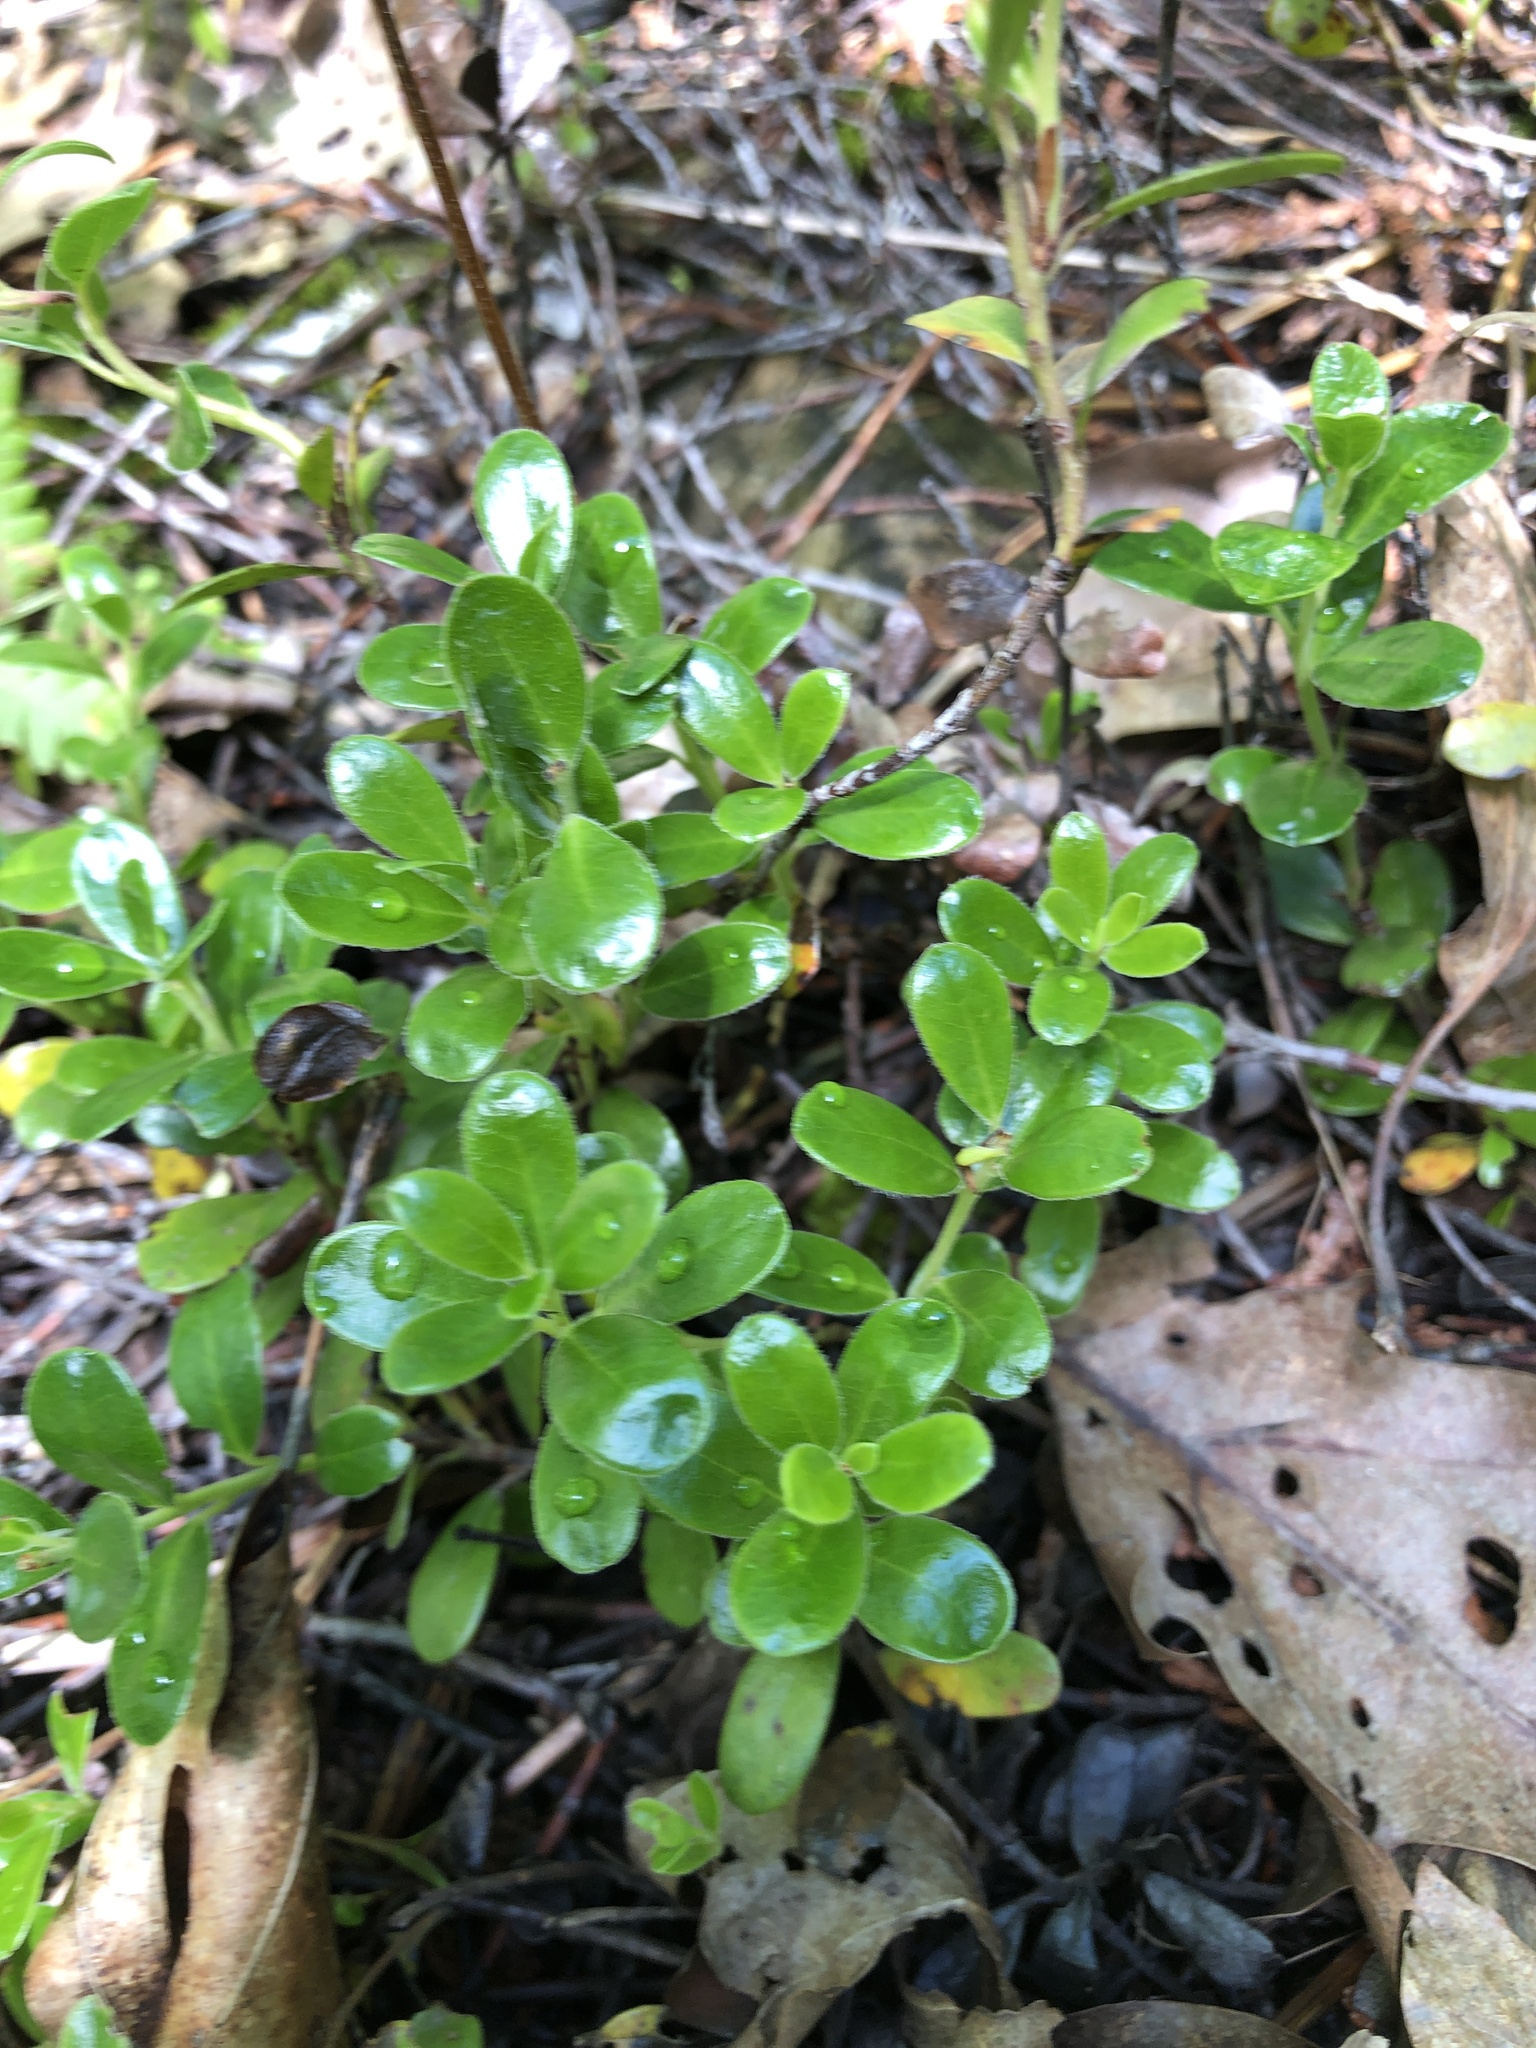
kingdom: Plantae
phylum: Tracheophyta
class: Magnoliopsida
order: Ericales
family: Ericaceae
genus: Arctostaphylos
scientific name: Arctostaphylos uva-ursi
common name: Bearberry
